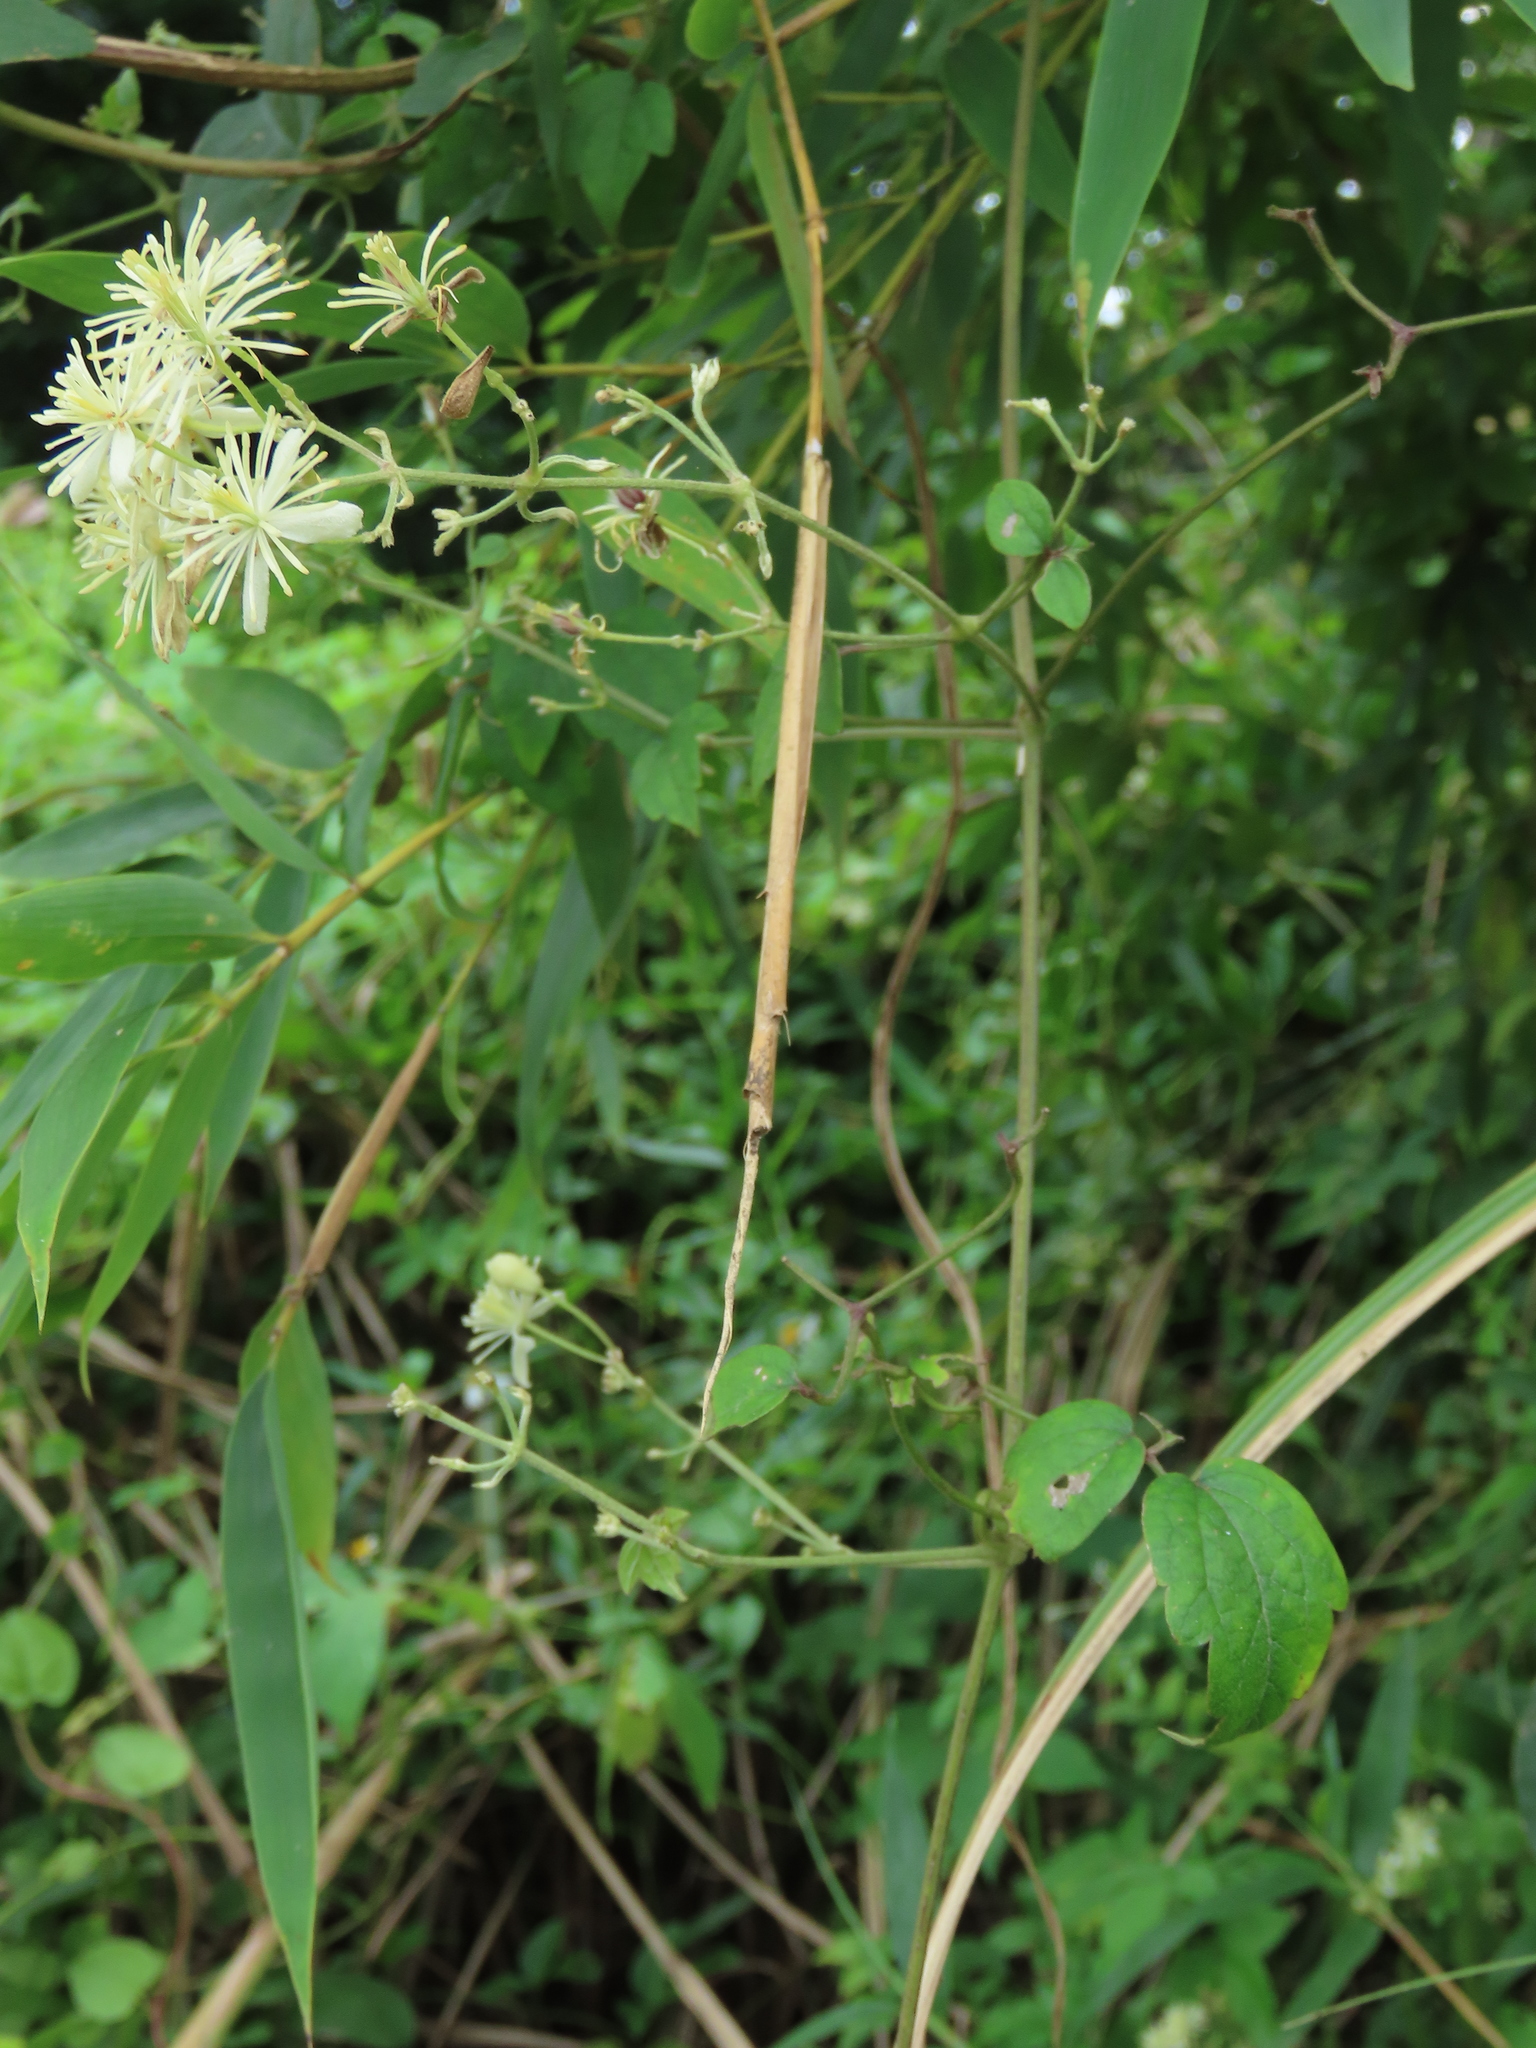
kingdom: Plantae
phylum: Tracheophyta
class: Magnoliopsida
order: Ranunculales
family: Ranunculaceae
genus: Clematis
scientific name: Clematis grata
